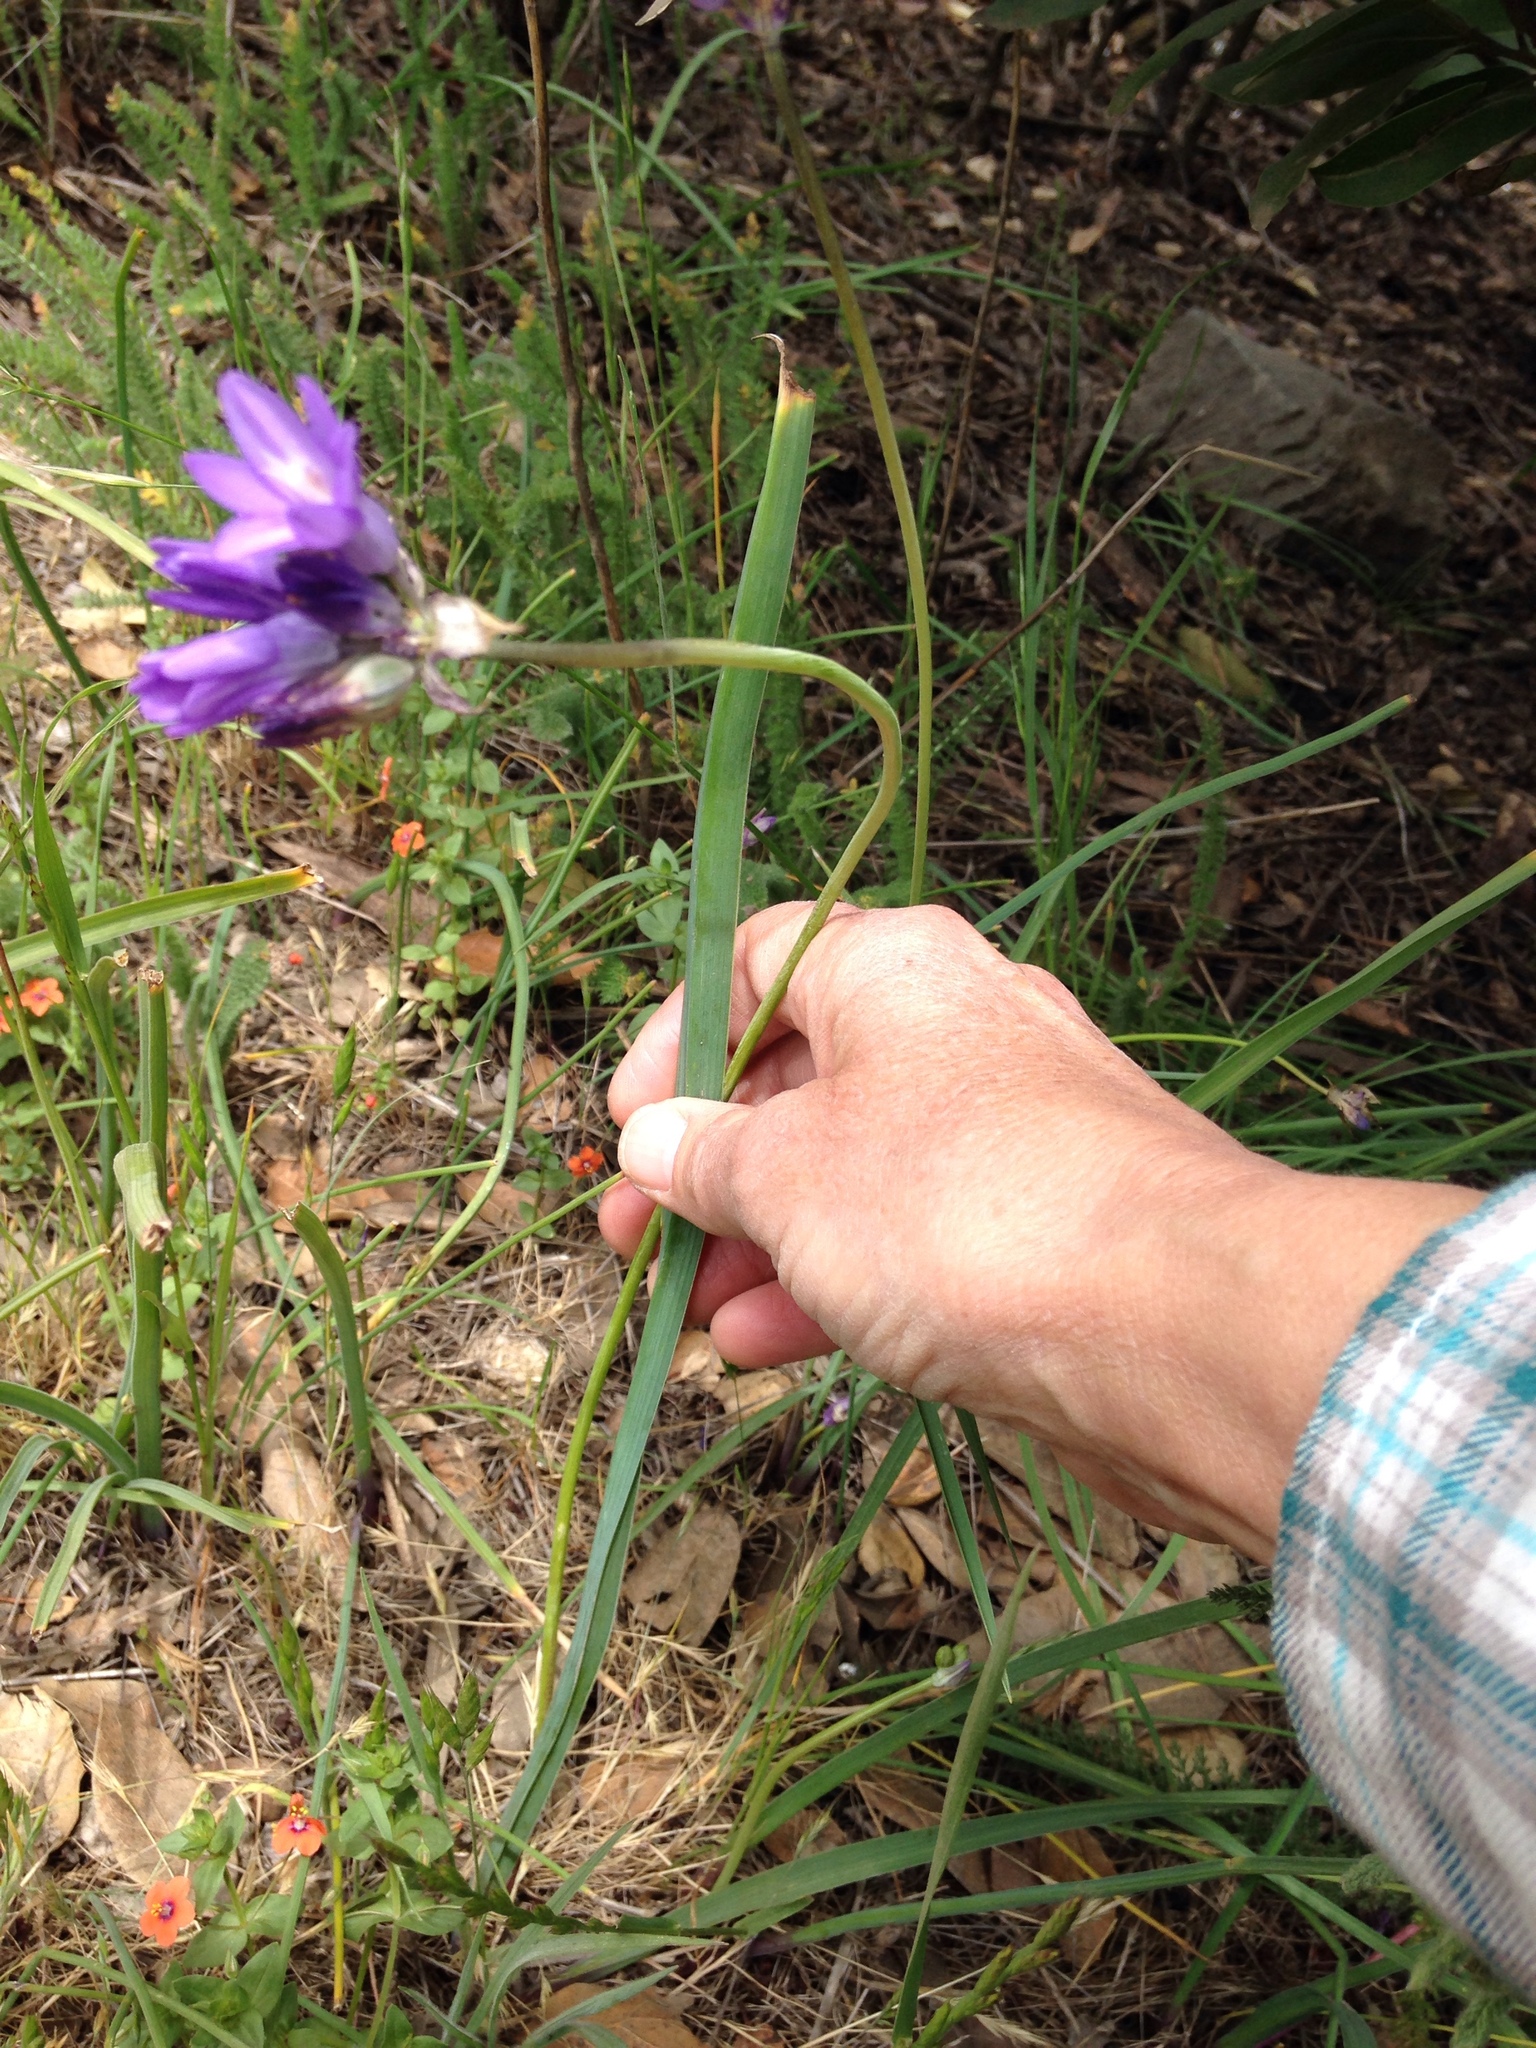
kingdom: Plantae
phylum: Tracheophyta
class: Liliopsida
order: Asparagales
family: Asparagaceae
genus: Dipterostemon
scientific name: Dipterostemon capitatus
